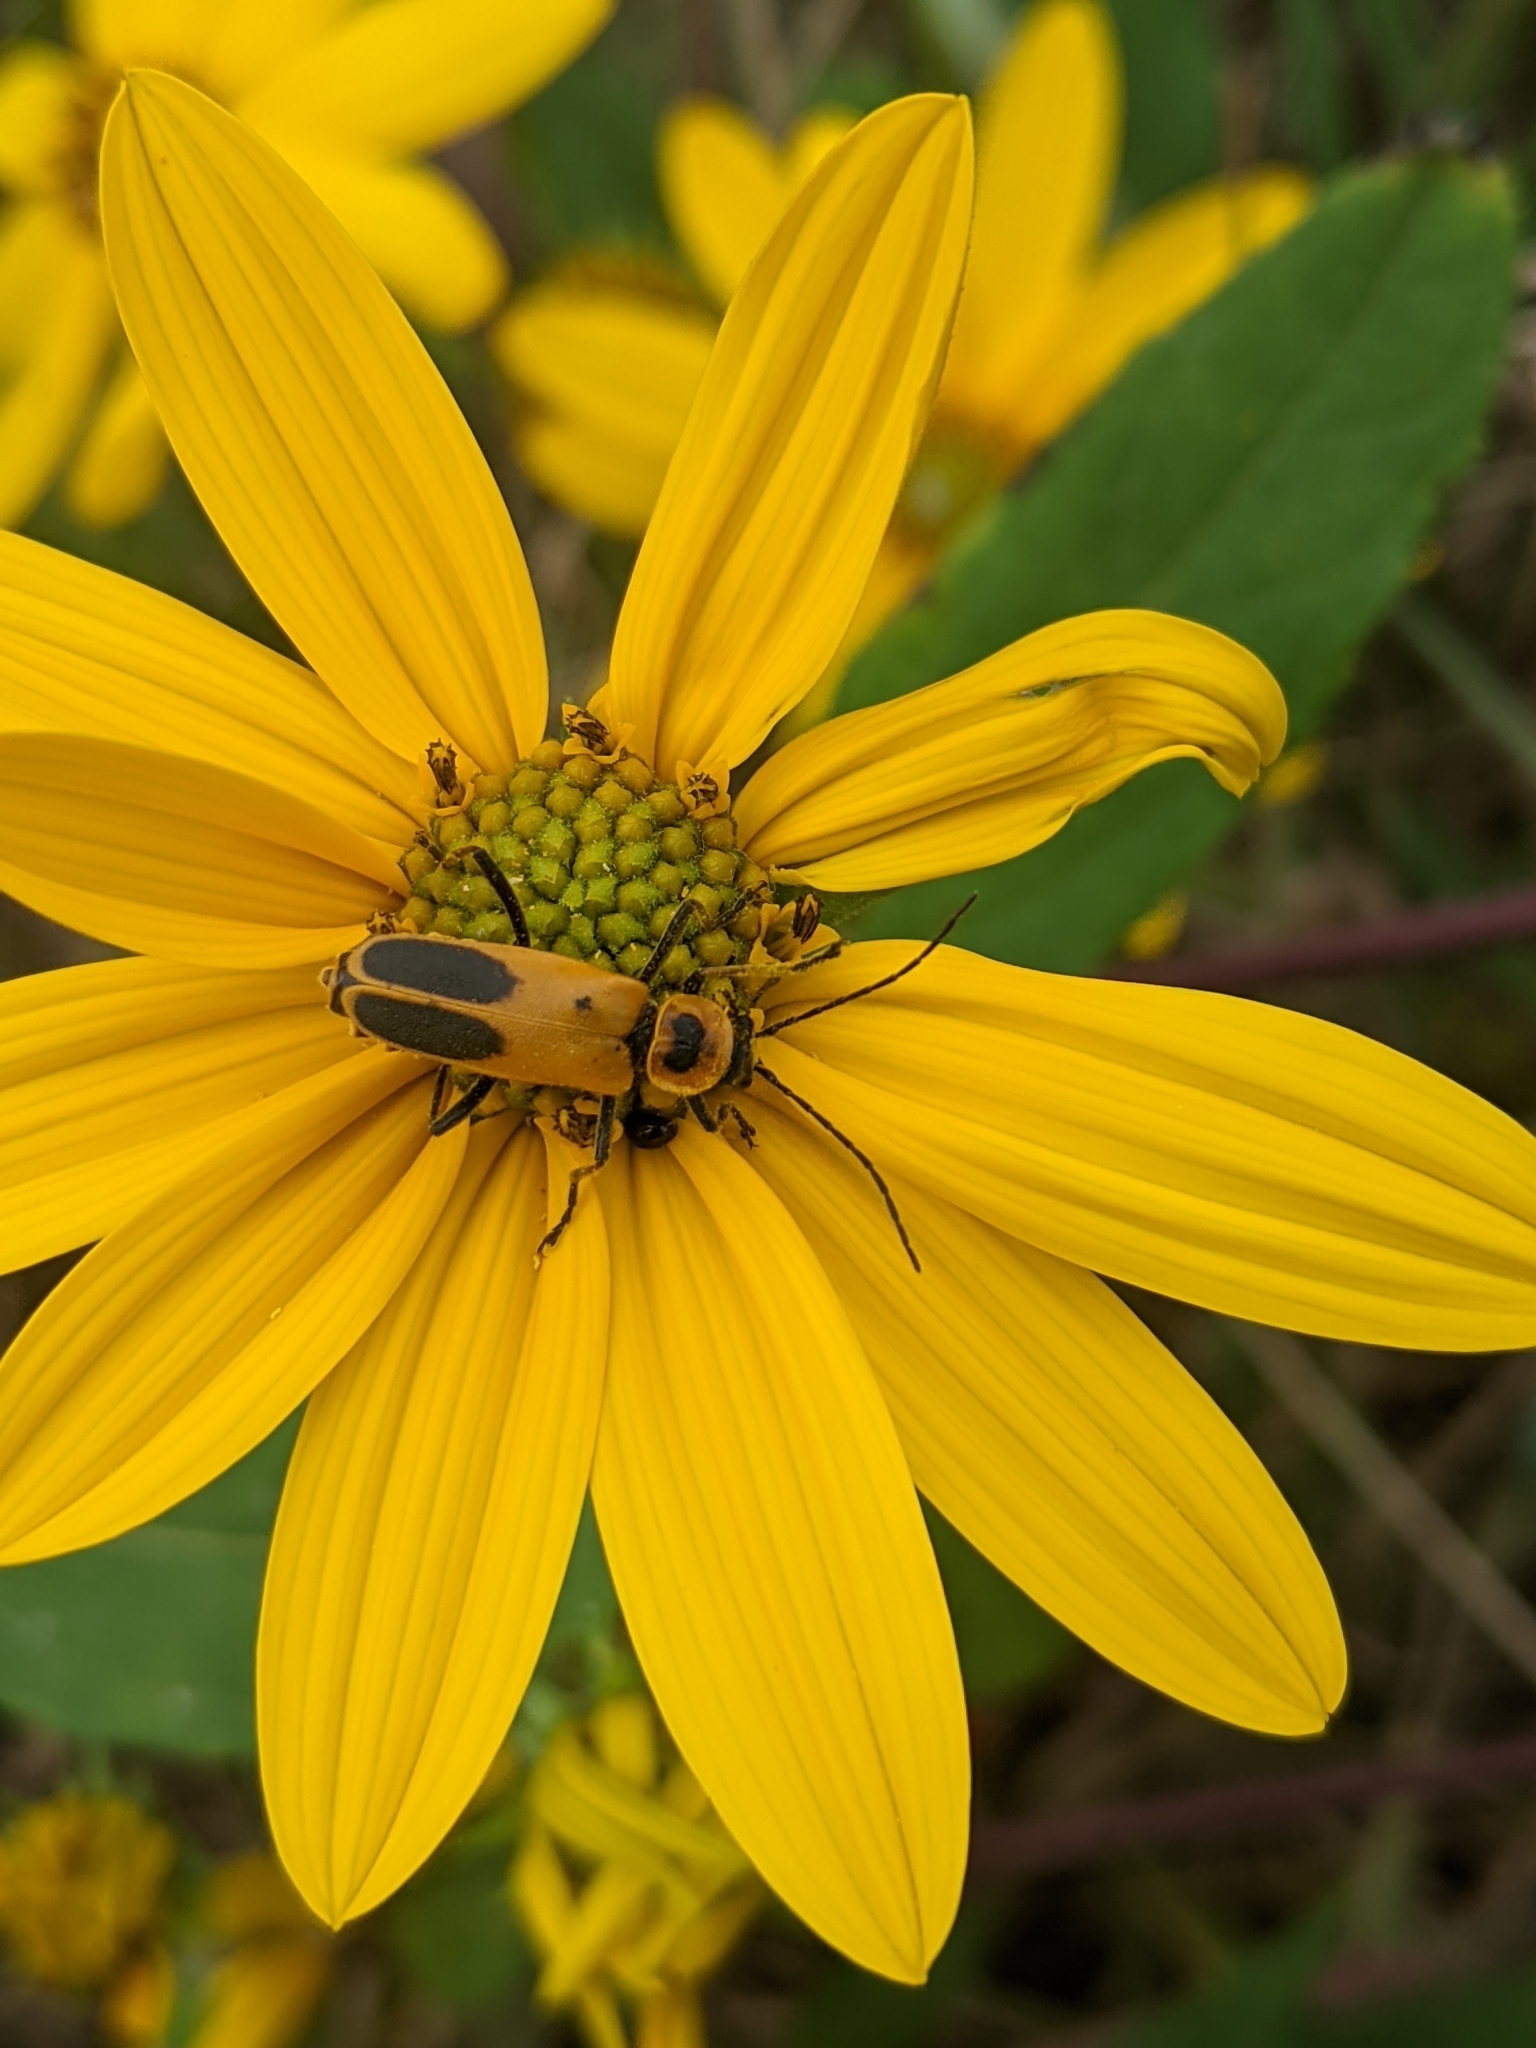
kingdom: Animalia
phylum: Arthropoda
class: Insecta
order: Coleoptera
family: Cantharidae
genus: Chauliognathus
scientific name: Chauliognathus pensylvanicus
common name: Goldenrod soldier beetle
